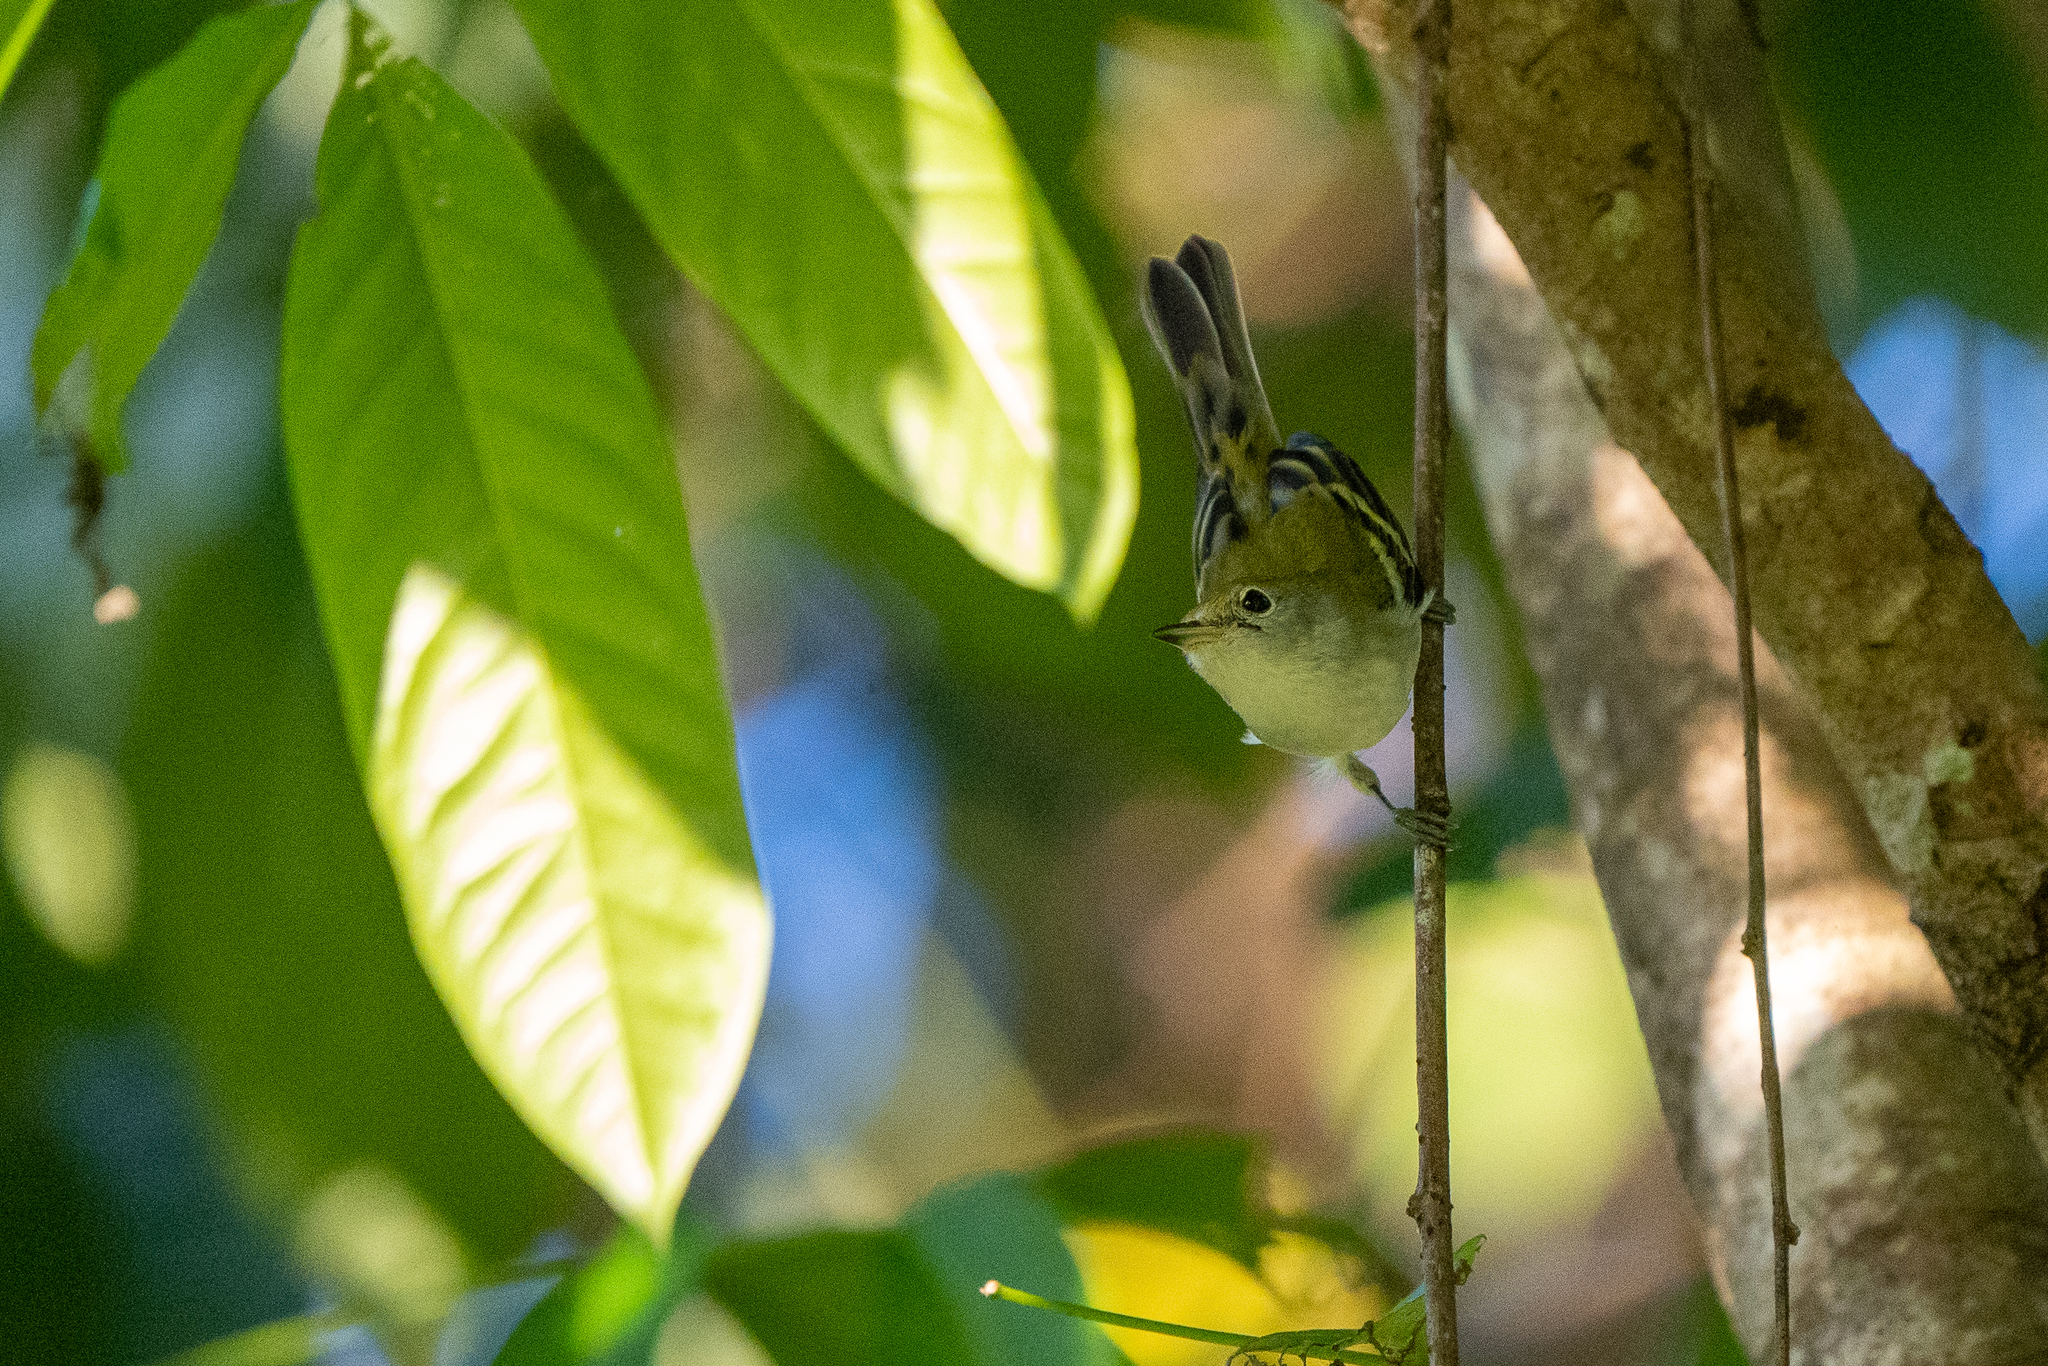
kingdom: Animalia
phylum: Chordata
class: Aves
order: Passeriformes
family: Parulidae
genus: Setophaga
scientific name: Setophaga pensylvanica
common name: Chestnut-sided warbler
